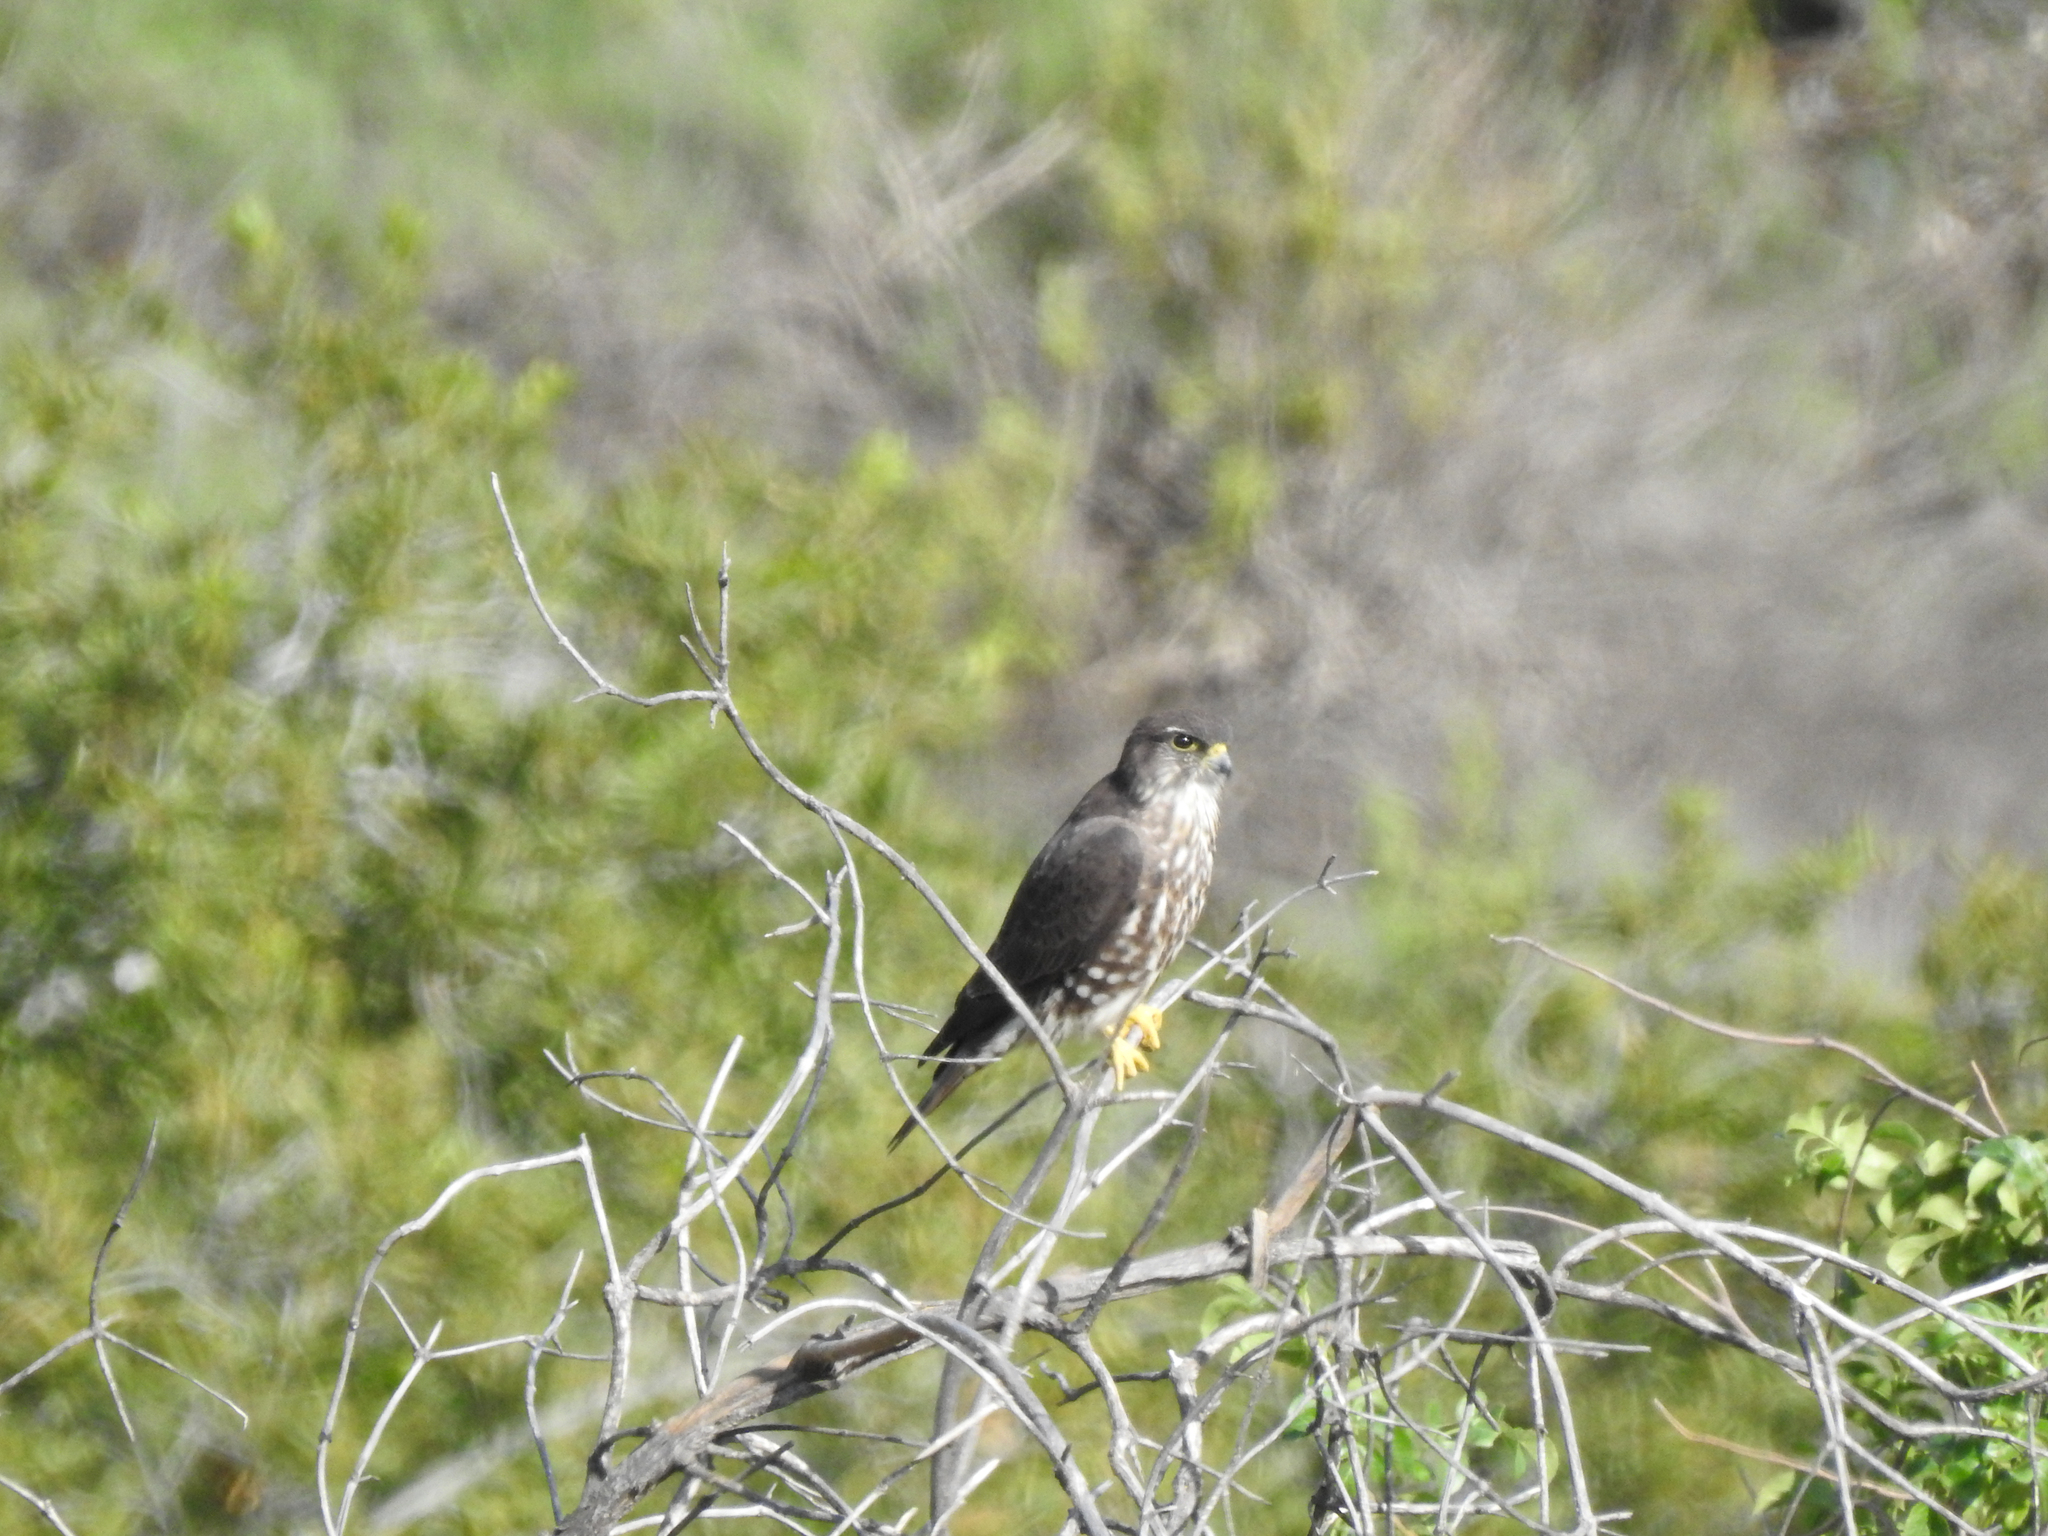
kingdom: Animalia
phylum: Chordata
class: Aves
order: Falconiformes
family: Falconidae
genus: Falco
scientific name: Falco columbarius
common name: Merlin
